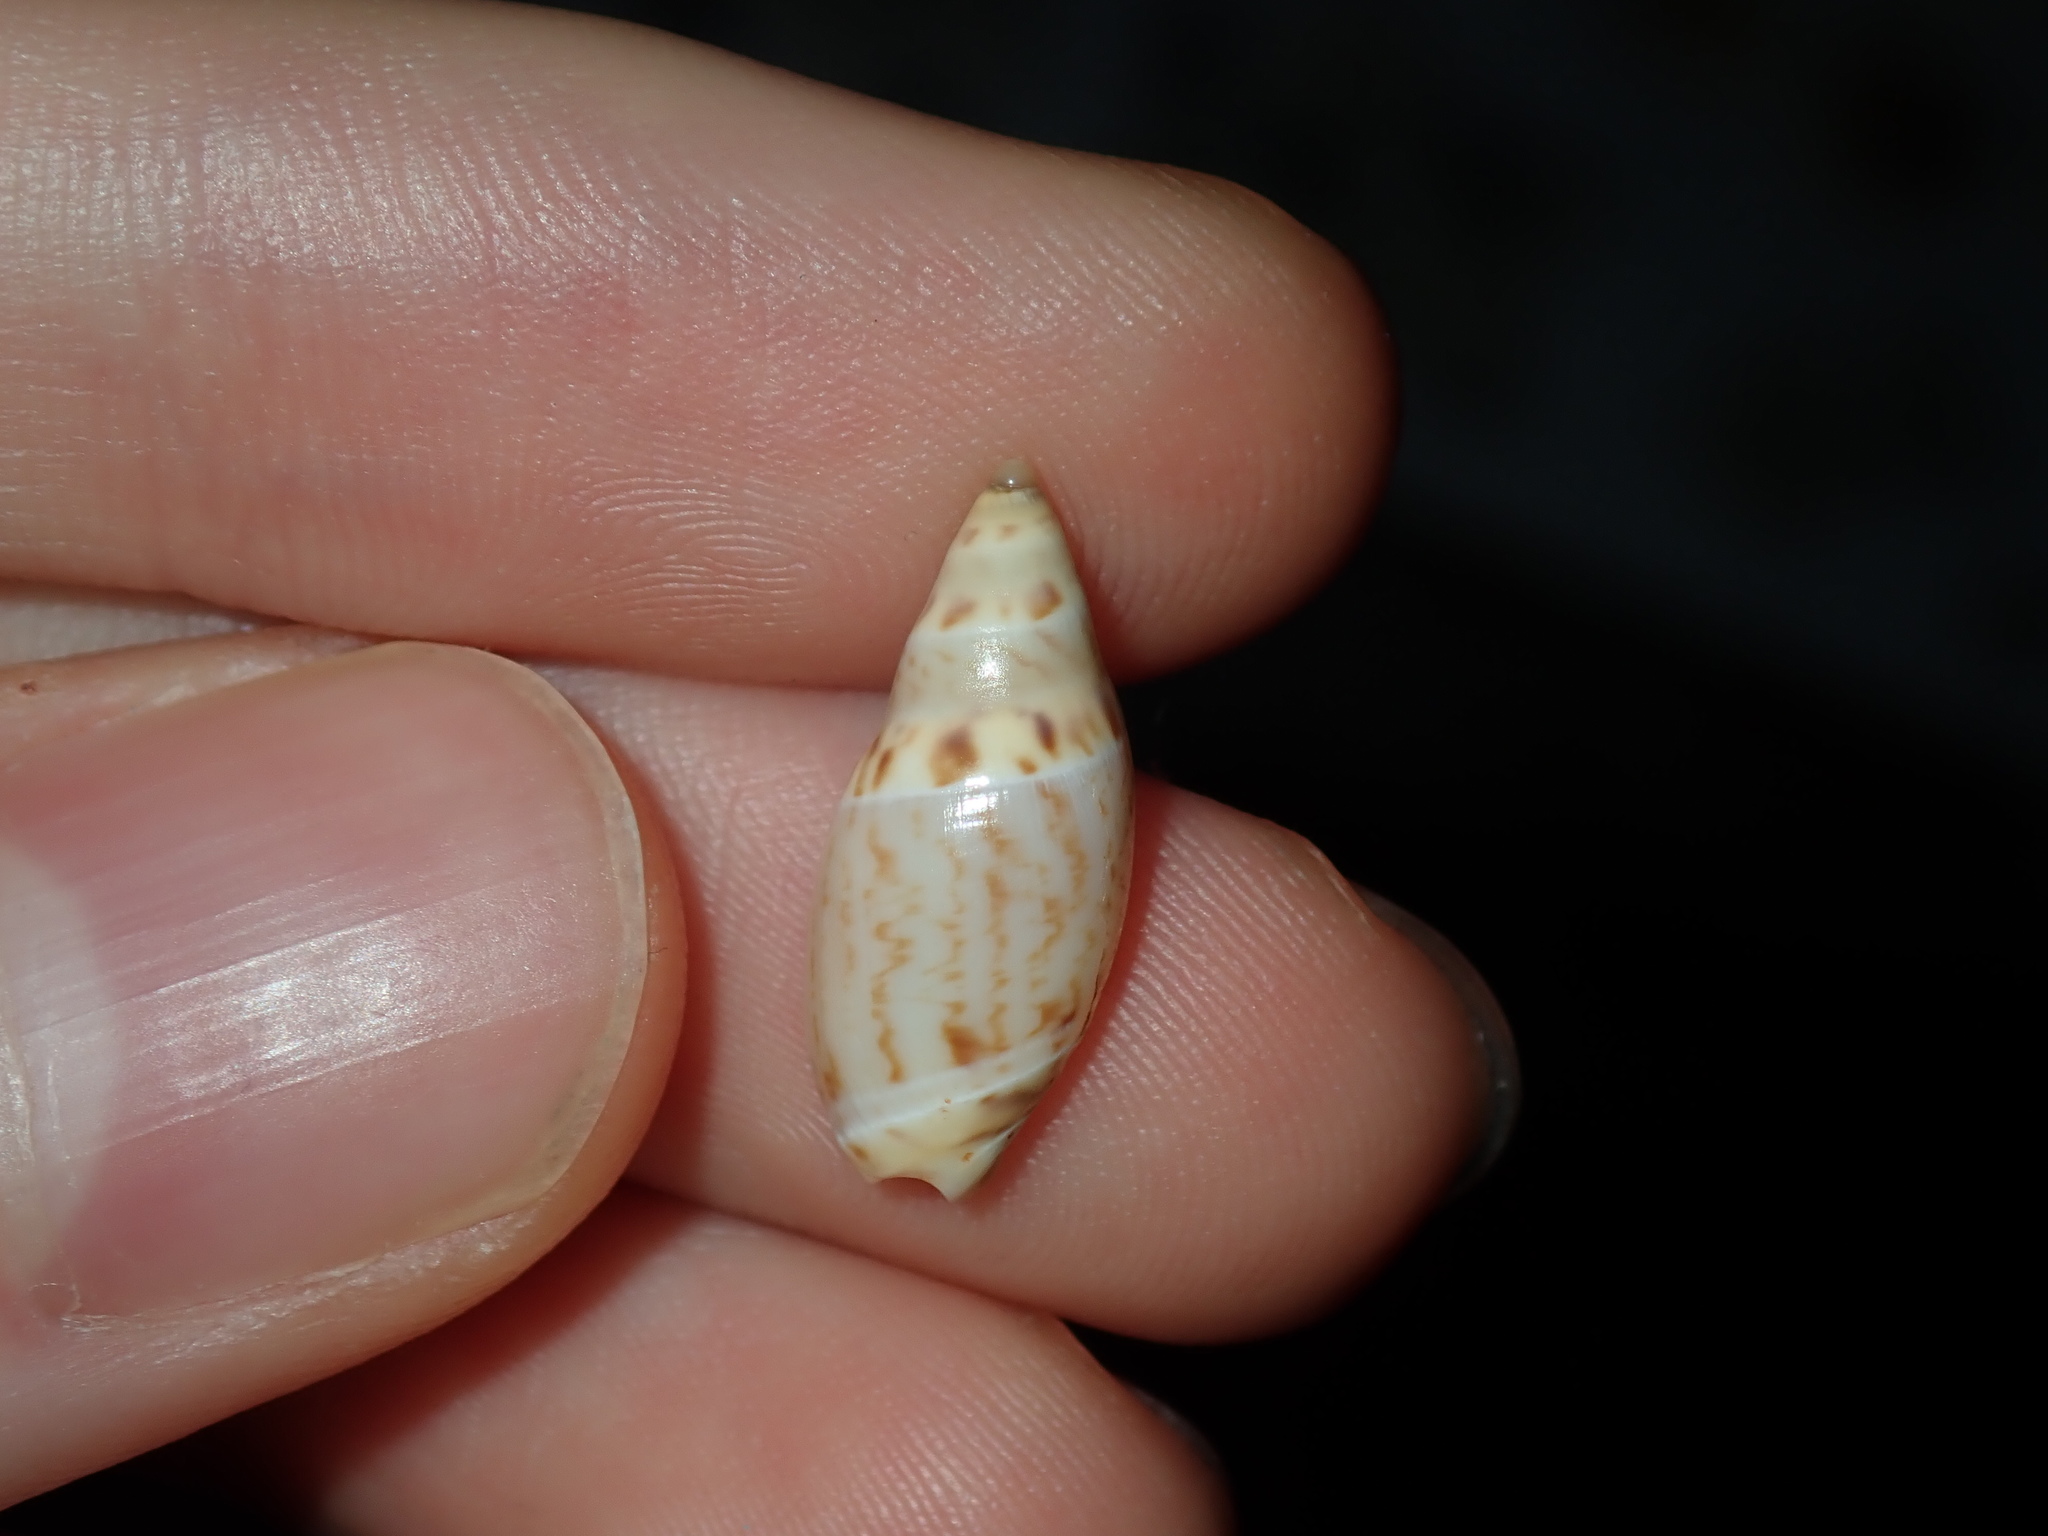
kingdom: Animalia
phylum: Mollusca
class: Gastropoda
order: Neogastropoda
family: Ancillariidae
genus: Amalda
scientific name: Amalda oblonga
